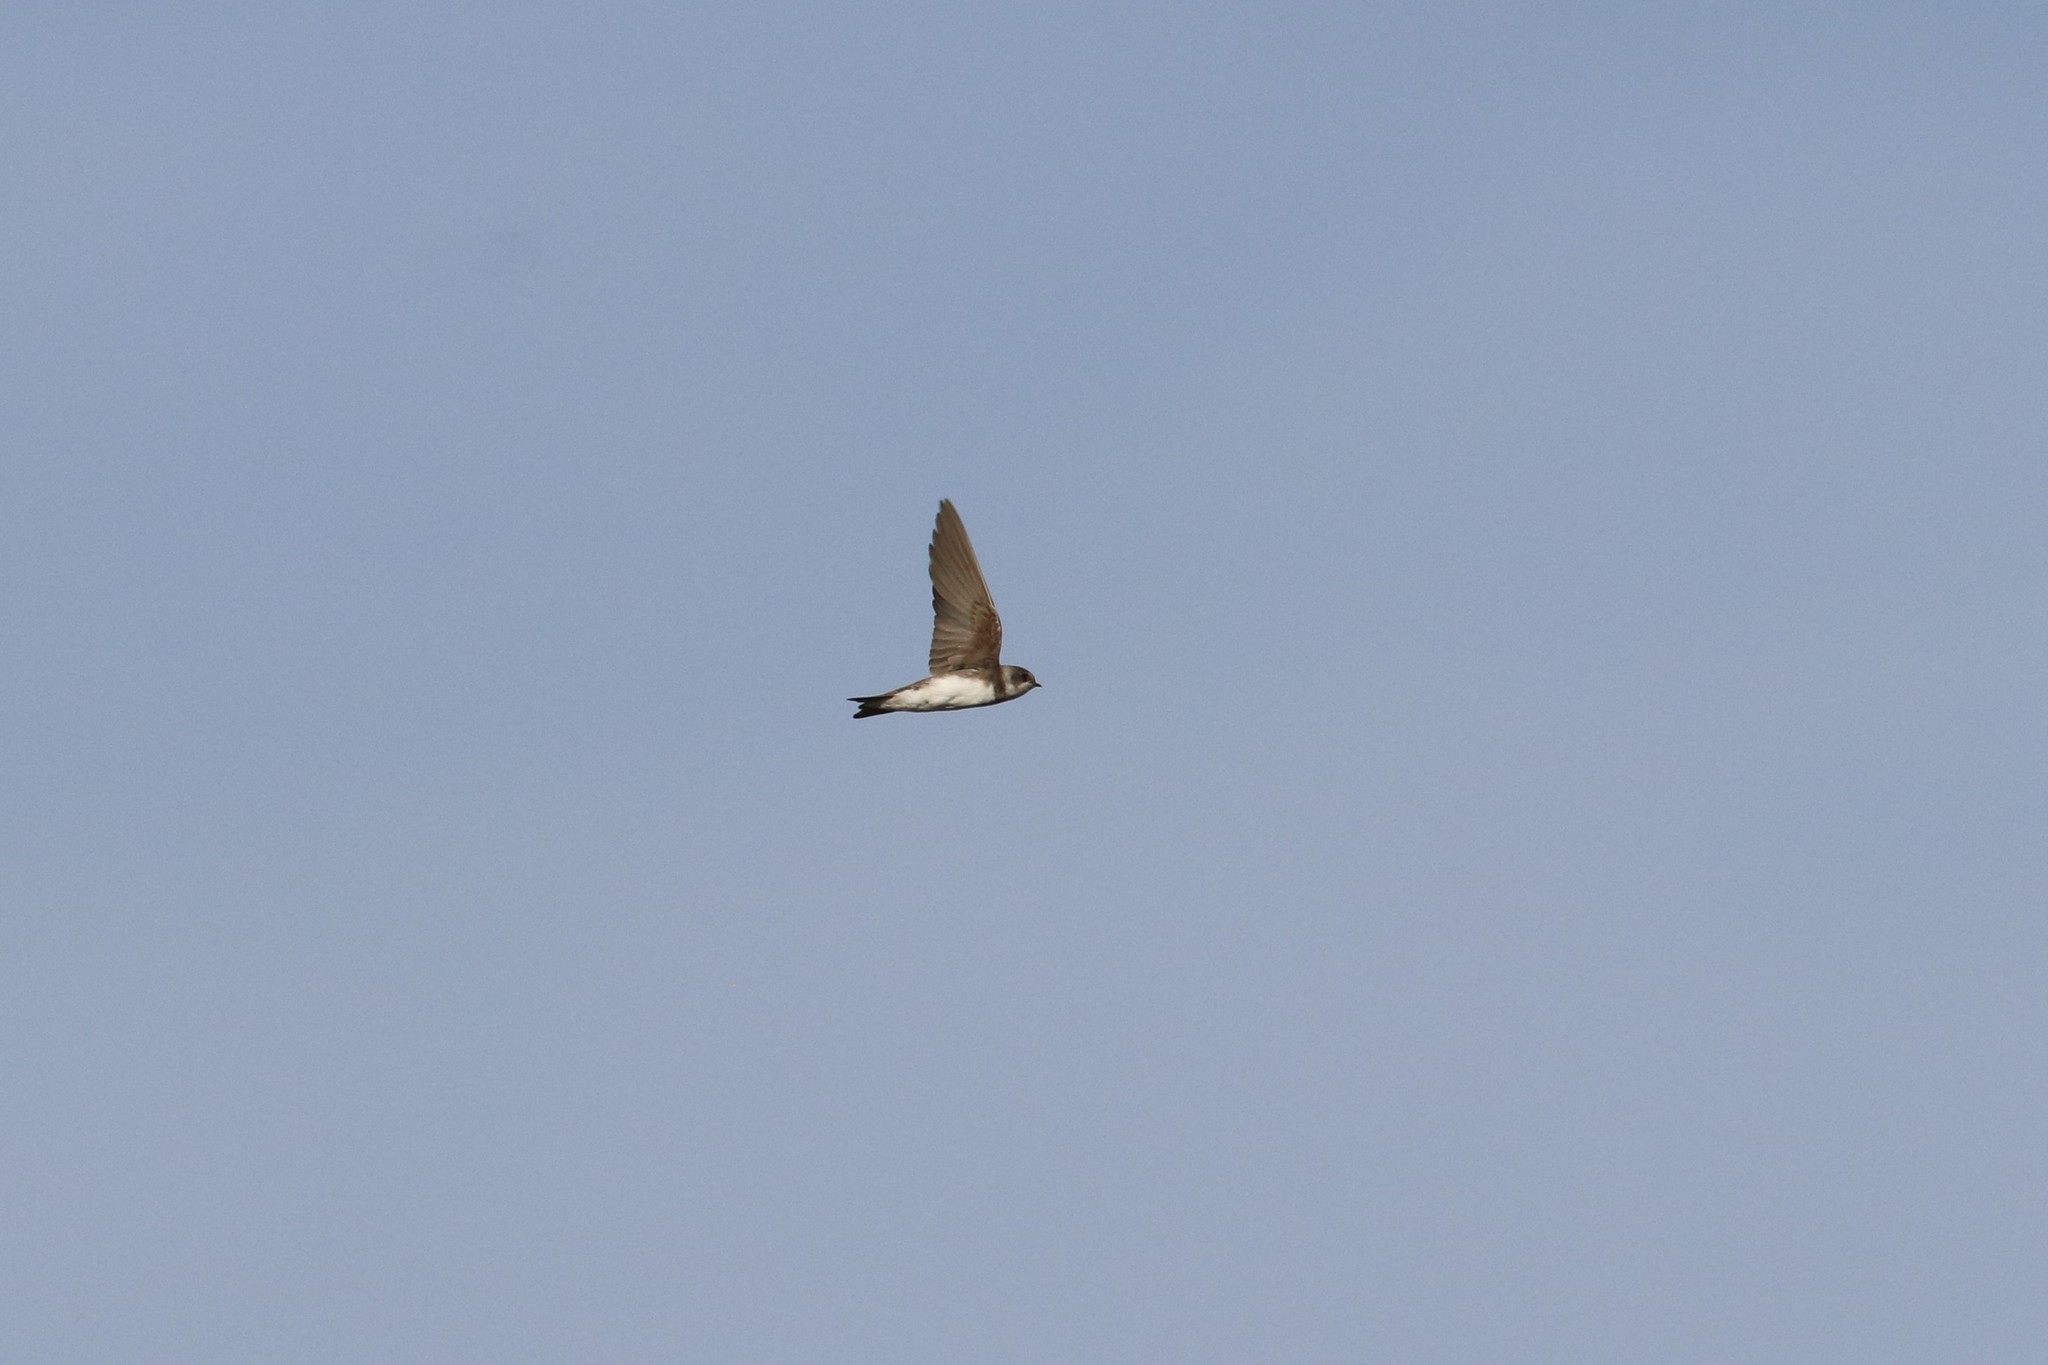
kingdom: Animalia
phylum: Chordata
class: Aves
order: Passeriformes
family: Hirundinidae
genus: Riparia
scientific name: Riparia riparia
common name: Sand martin
